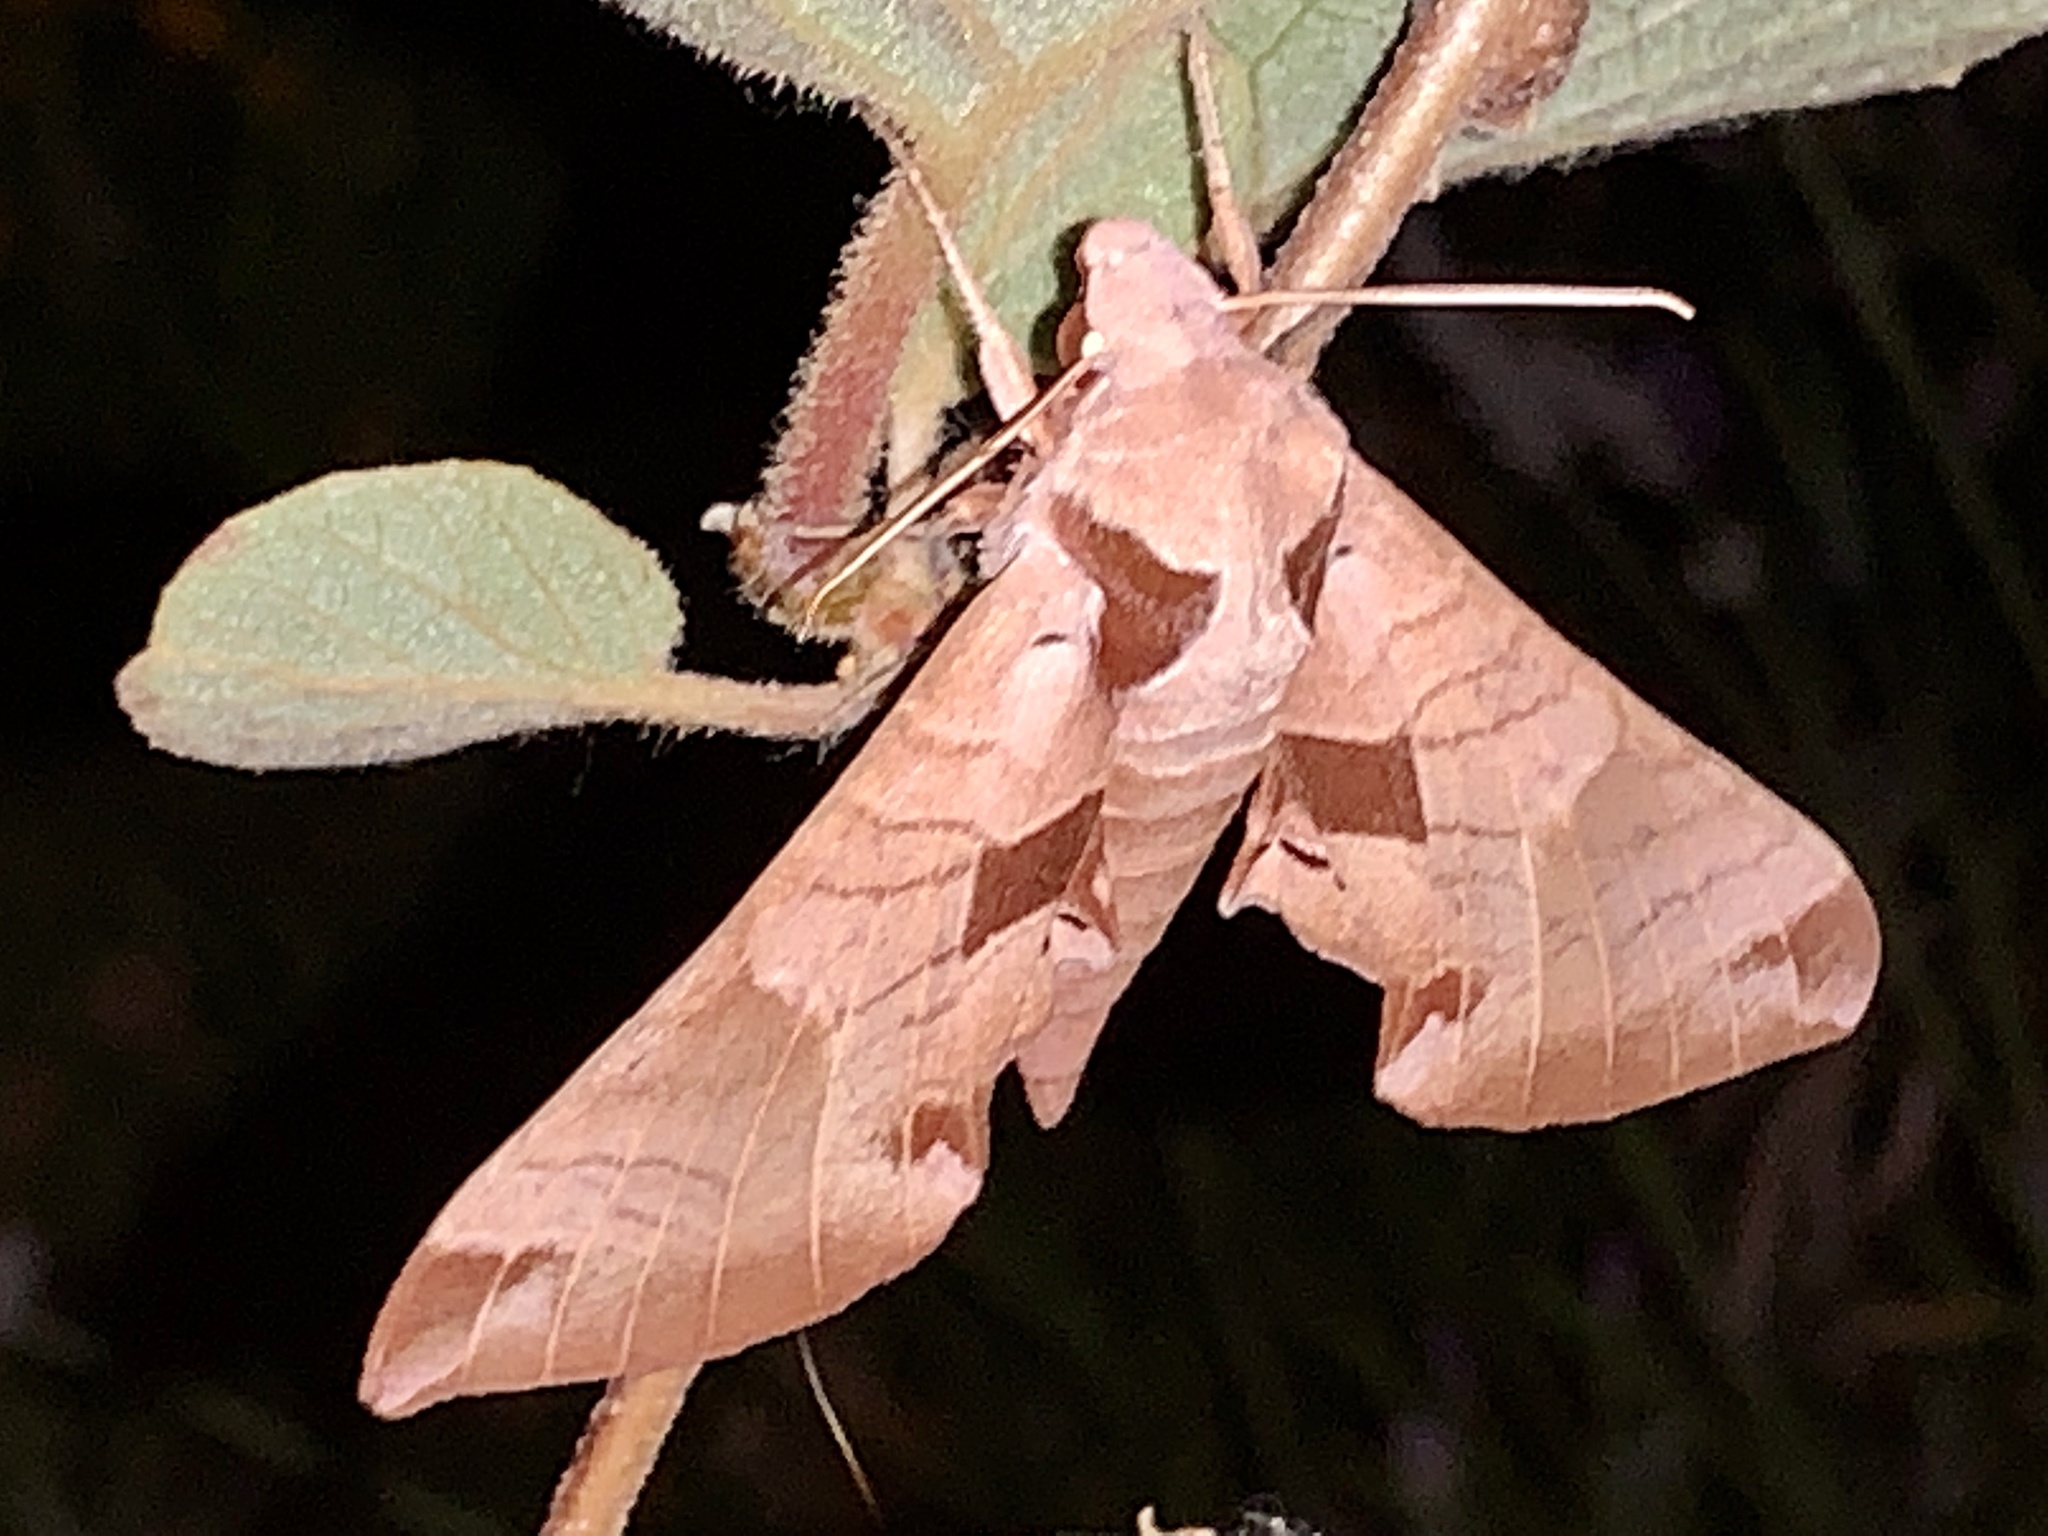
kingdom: Animalia
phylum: Arthropoda
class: Insecta
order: Lepidoptera
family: Sphingidae
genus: Eumorpha
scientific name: Eumorpha achemon
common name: Achemon sphinx
